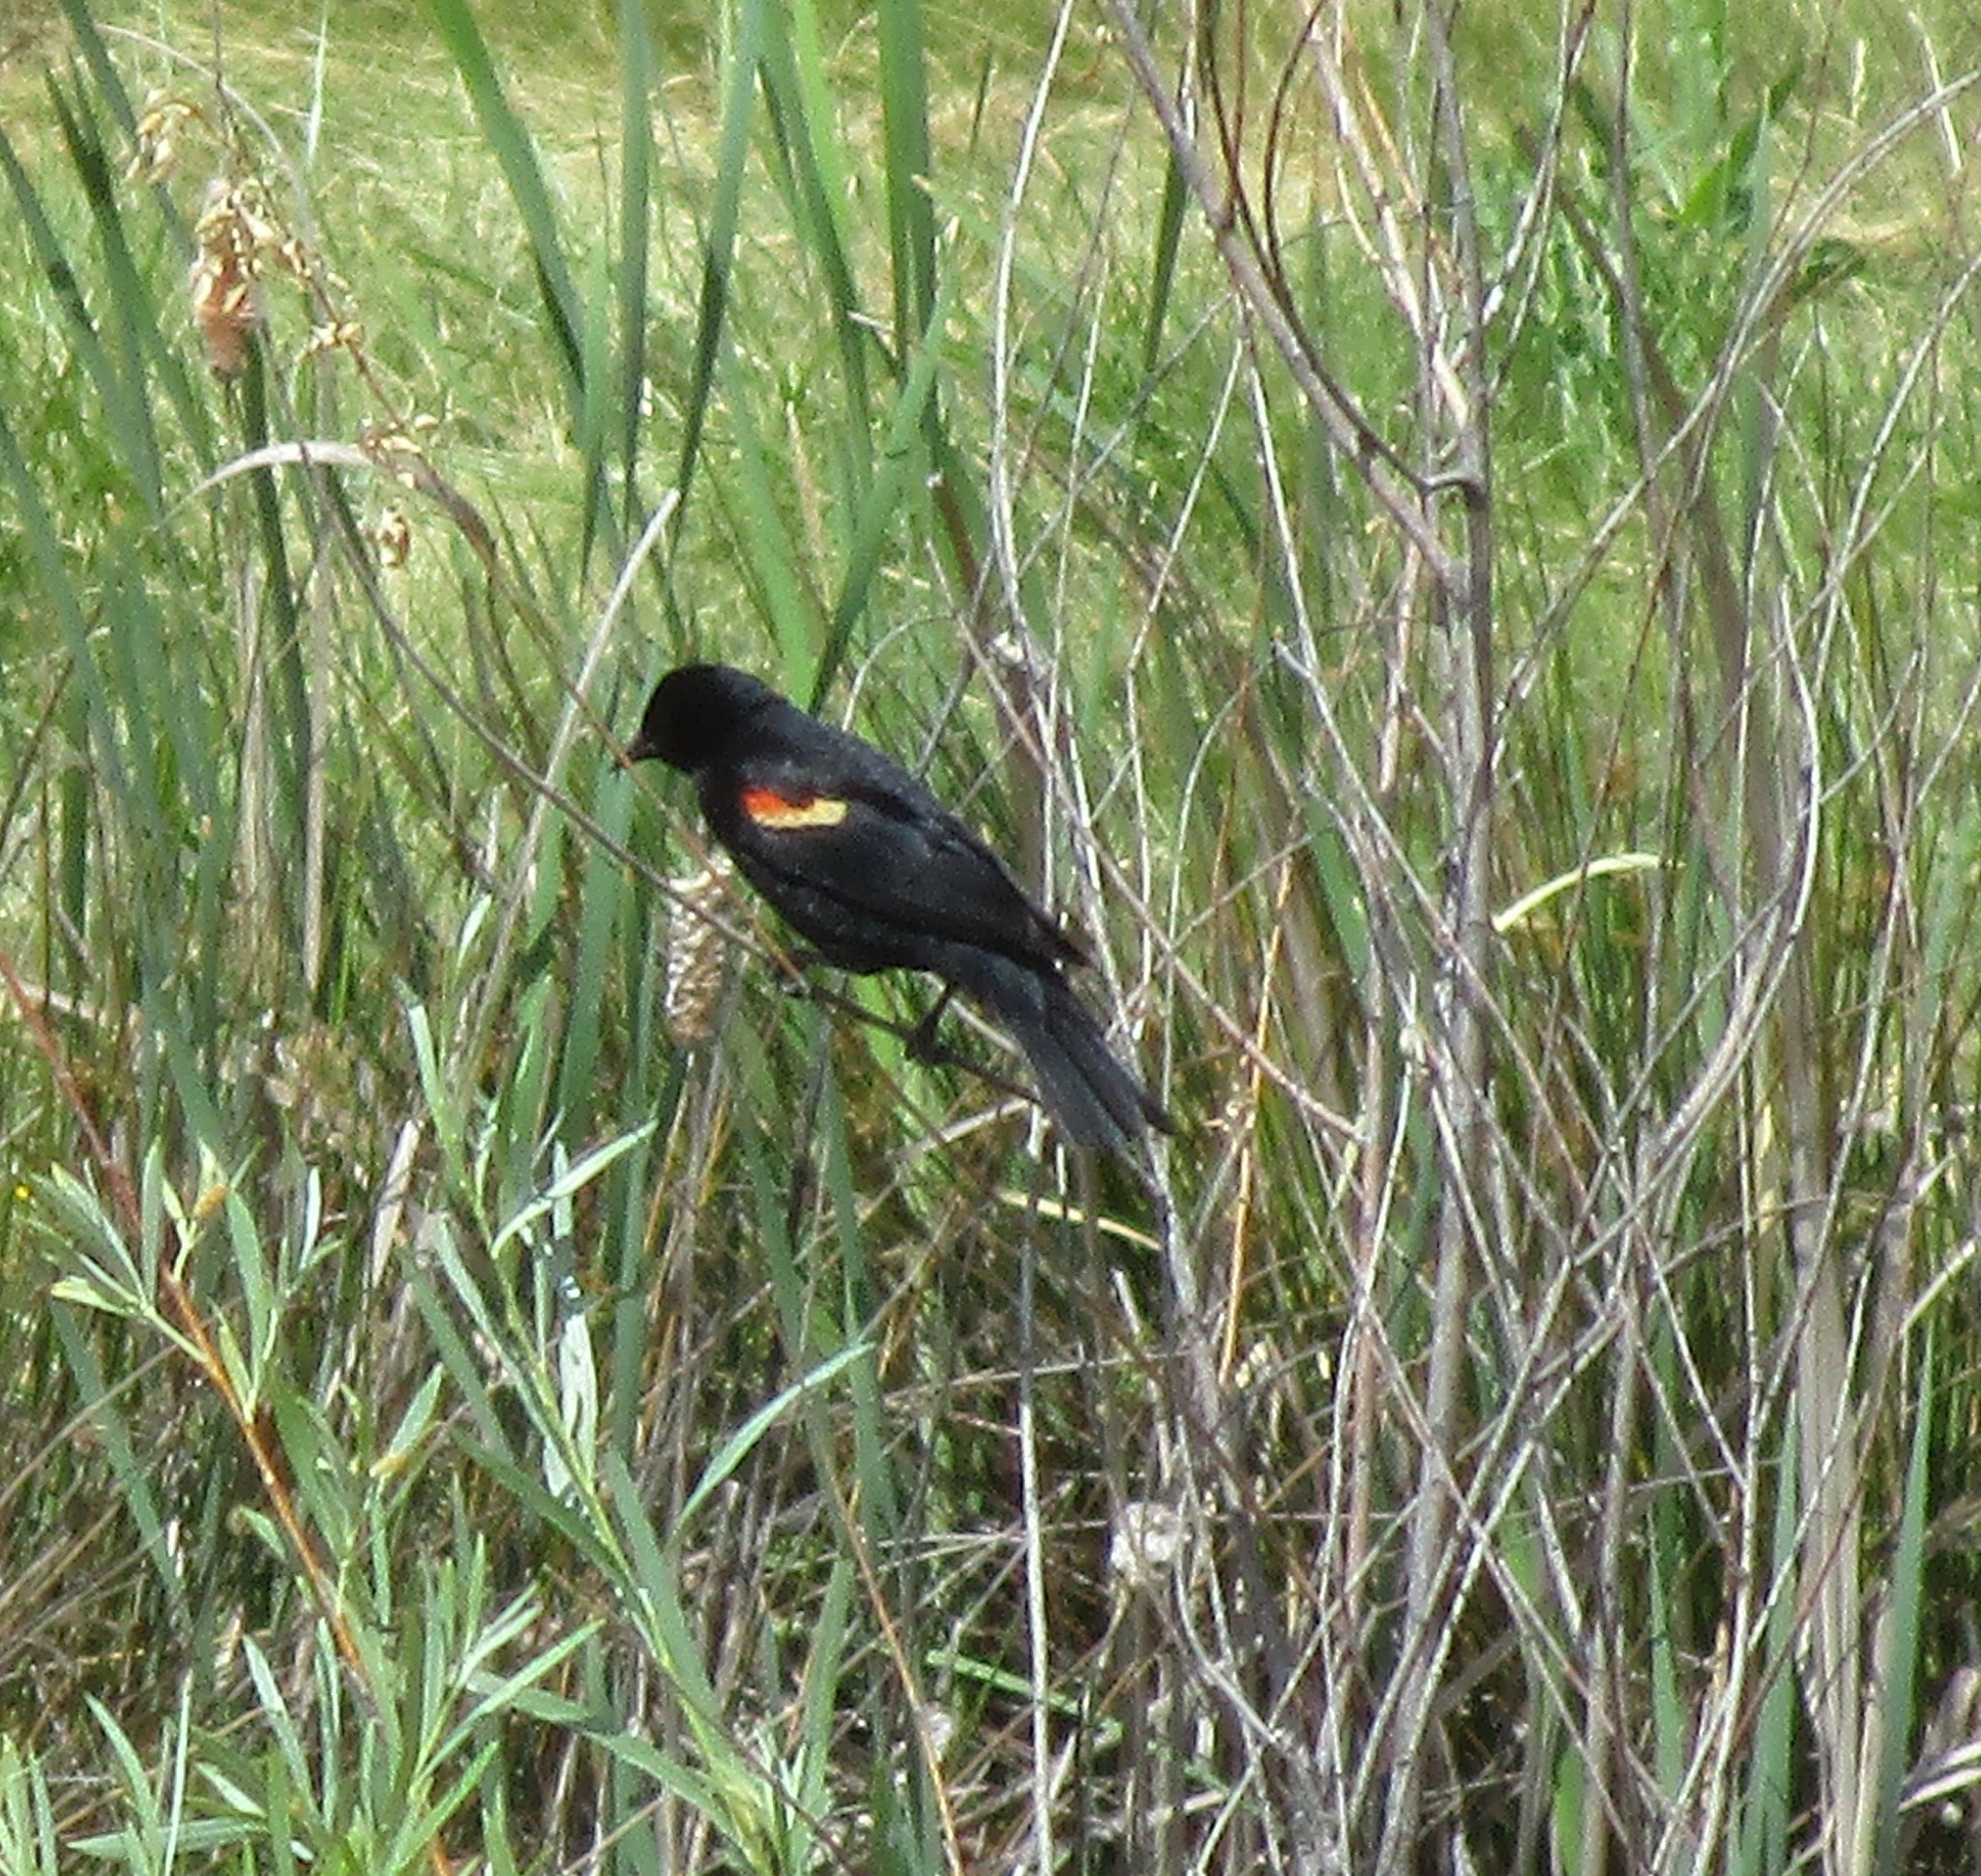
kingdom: Animalia
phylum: Chordata
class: Aves
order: Passeriformes
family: Icteridae
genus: Agelaius
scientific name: Agelaius phoeniceus
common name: Red-winged blackbird
